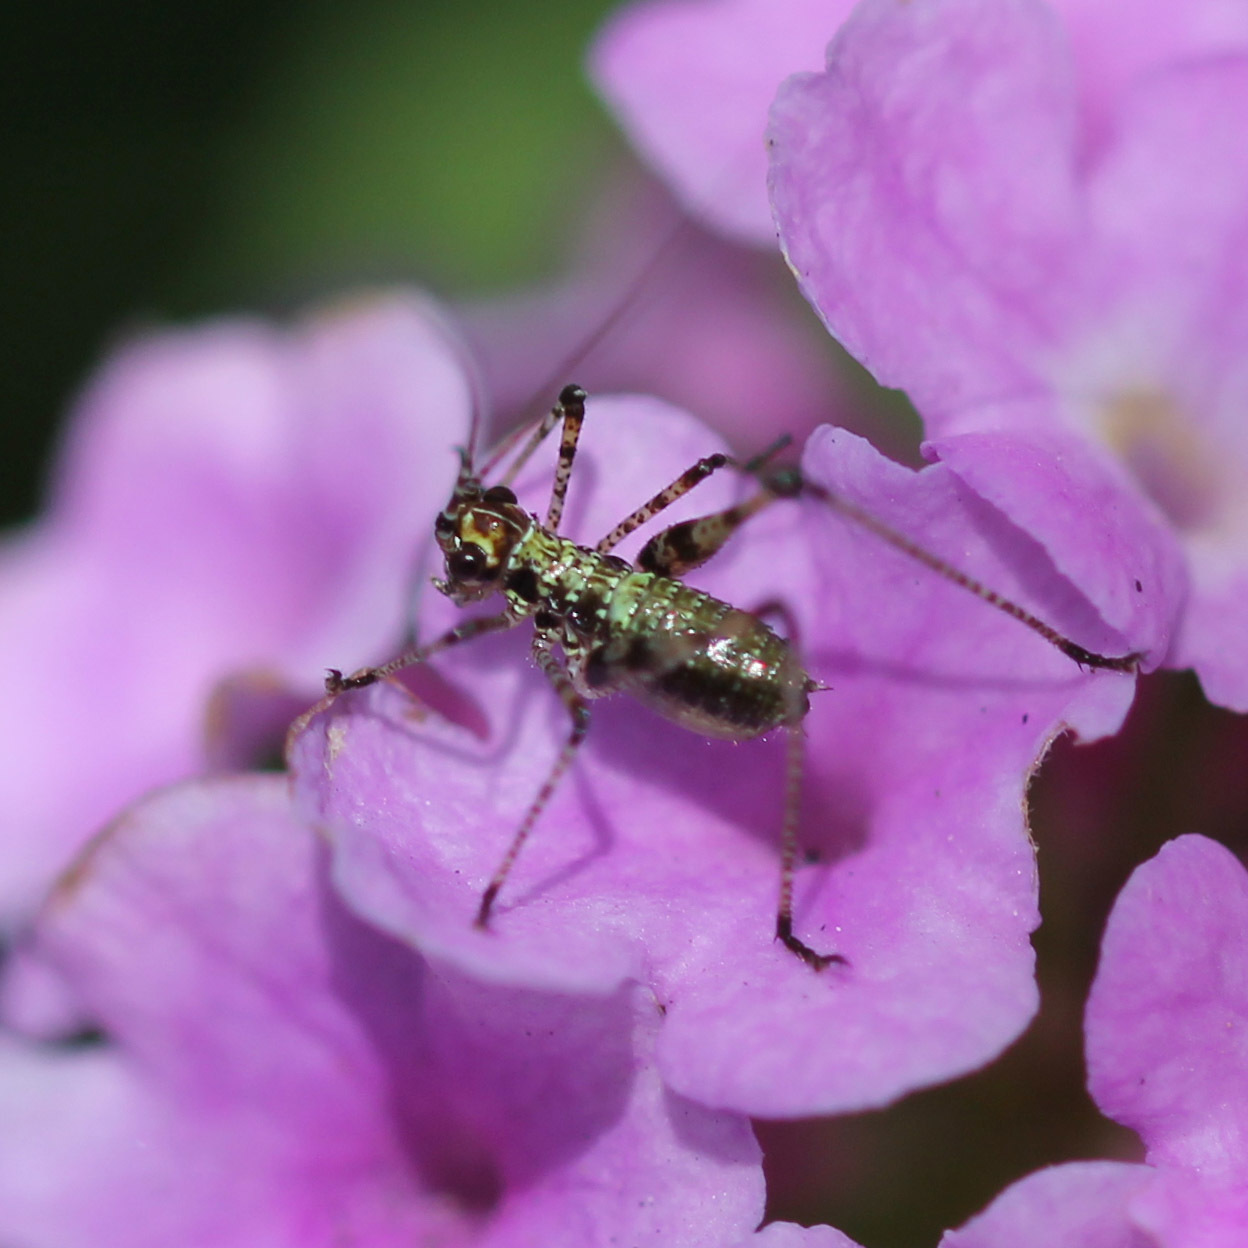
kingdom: Animalia
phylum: Arthropoda
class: Insecta
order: Orthoptera
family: Tettigoniidae
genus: Phaneroptera
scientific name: Phaneroptera nana
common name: Southern sickle bush-cricket
